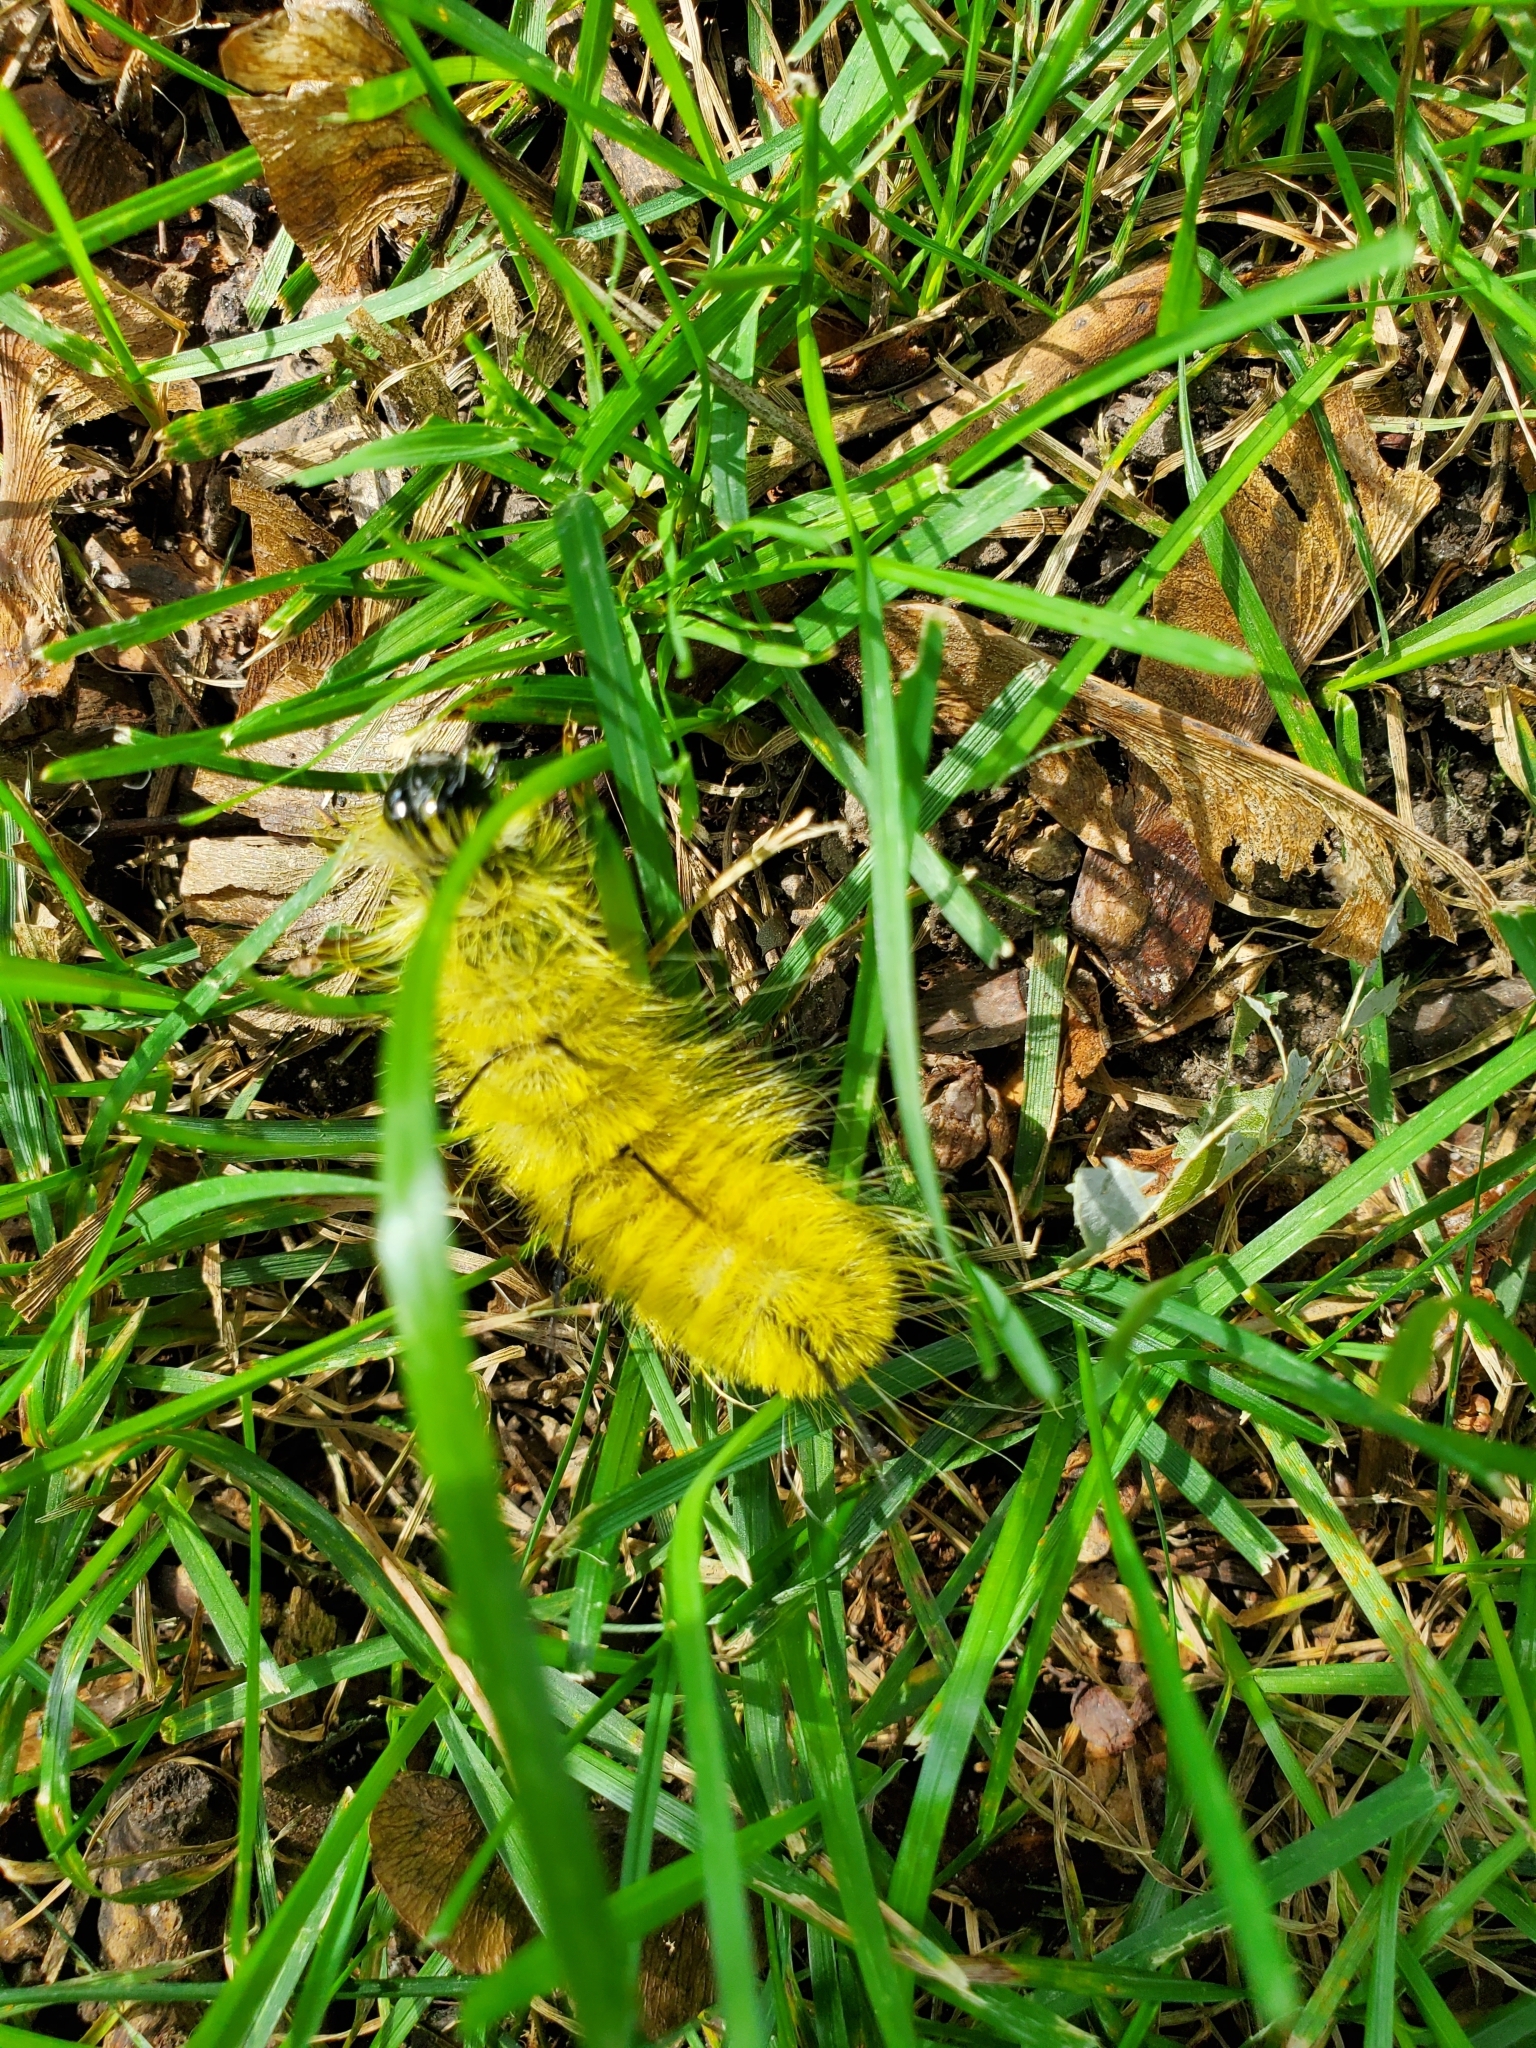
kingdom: Animalia
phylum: Arthropoda
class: Insecta
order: Lepidoptera
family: Noctuidae
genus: Acronicta
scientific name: Acronicta americana
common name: American dagger
